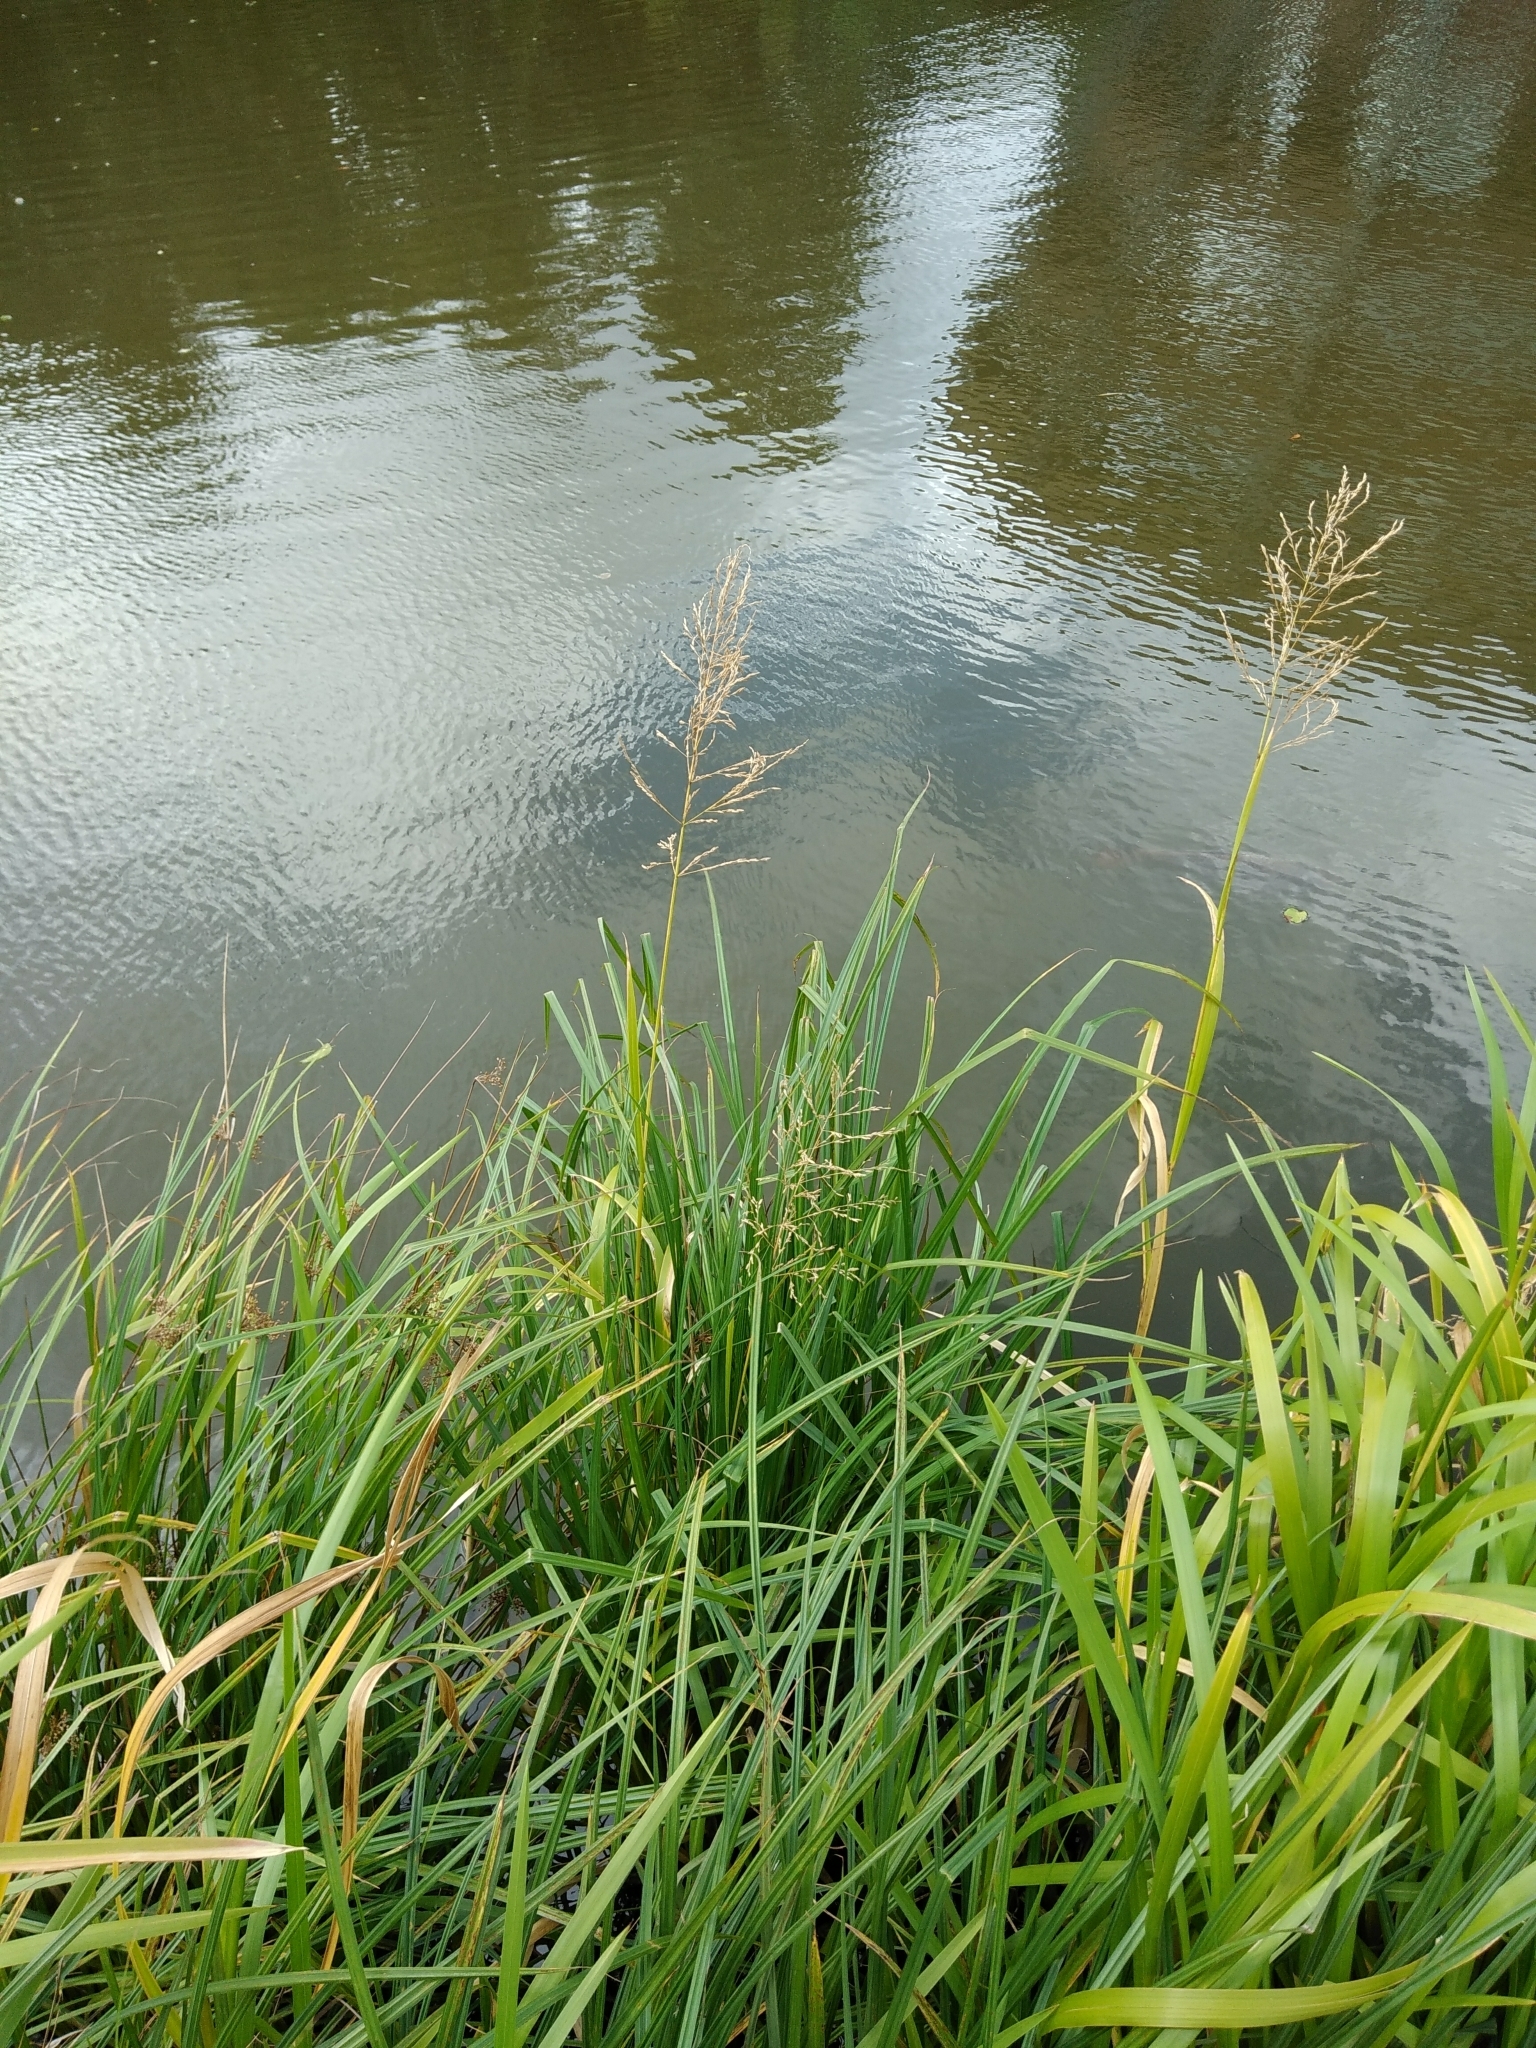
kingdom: Plantae
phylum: Tracheophyta
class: Liliopsida
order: Poales
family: Poaceae
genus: Glyceria
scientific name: Glyceria maxima
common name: Reed mannagrass
